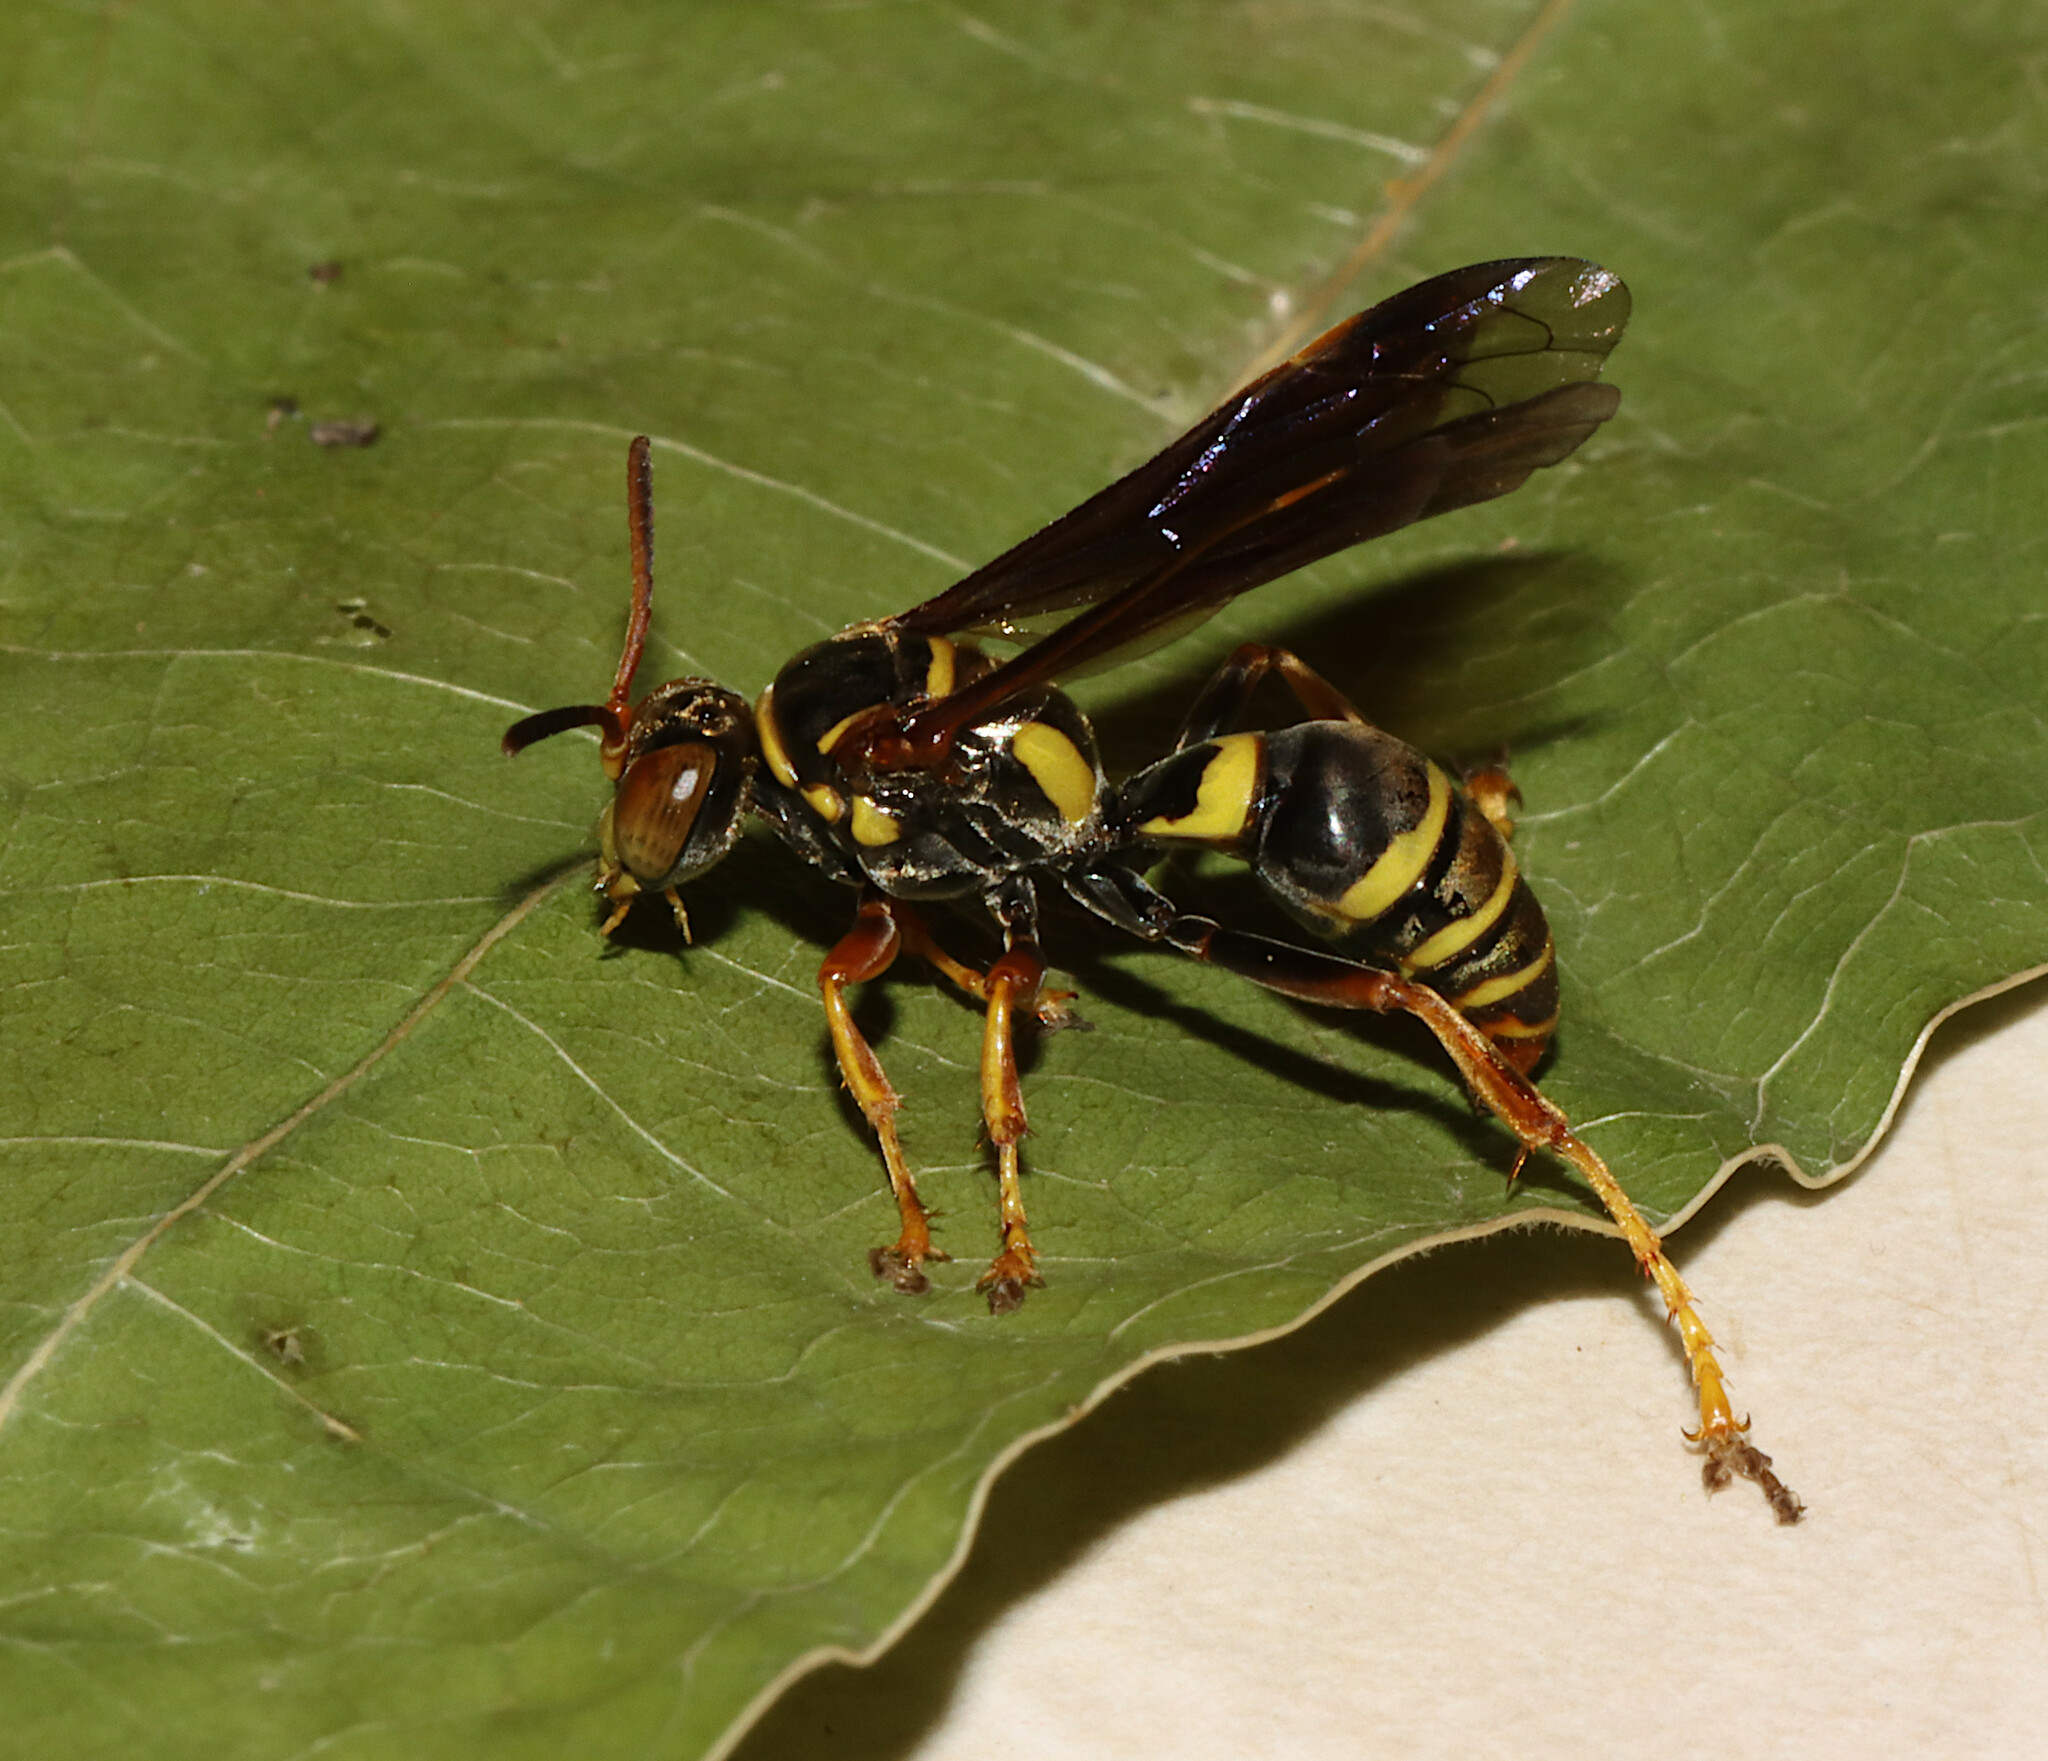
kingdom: Animalia
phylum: Arthropoda
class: Insecta
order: Hymenoptera
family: Crabronidae
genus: Saygorytes
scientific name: Saygorytes phaleratus
